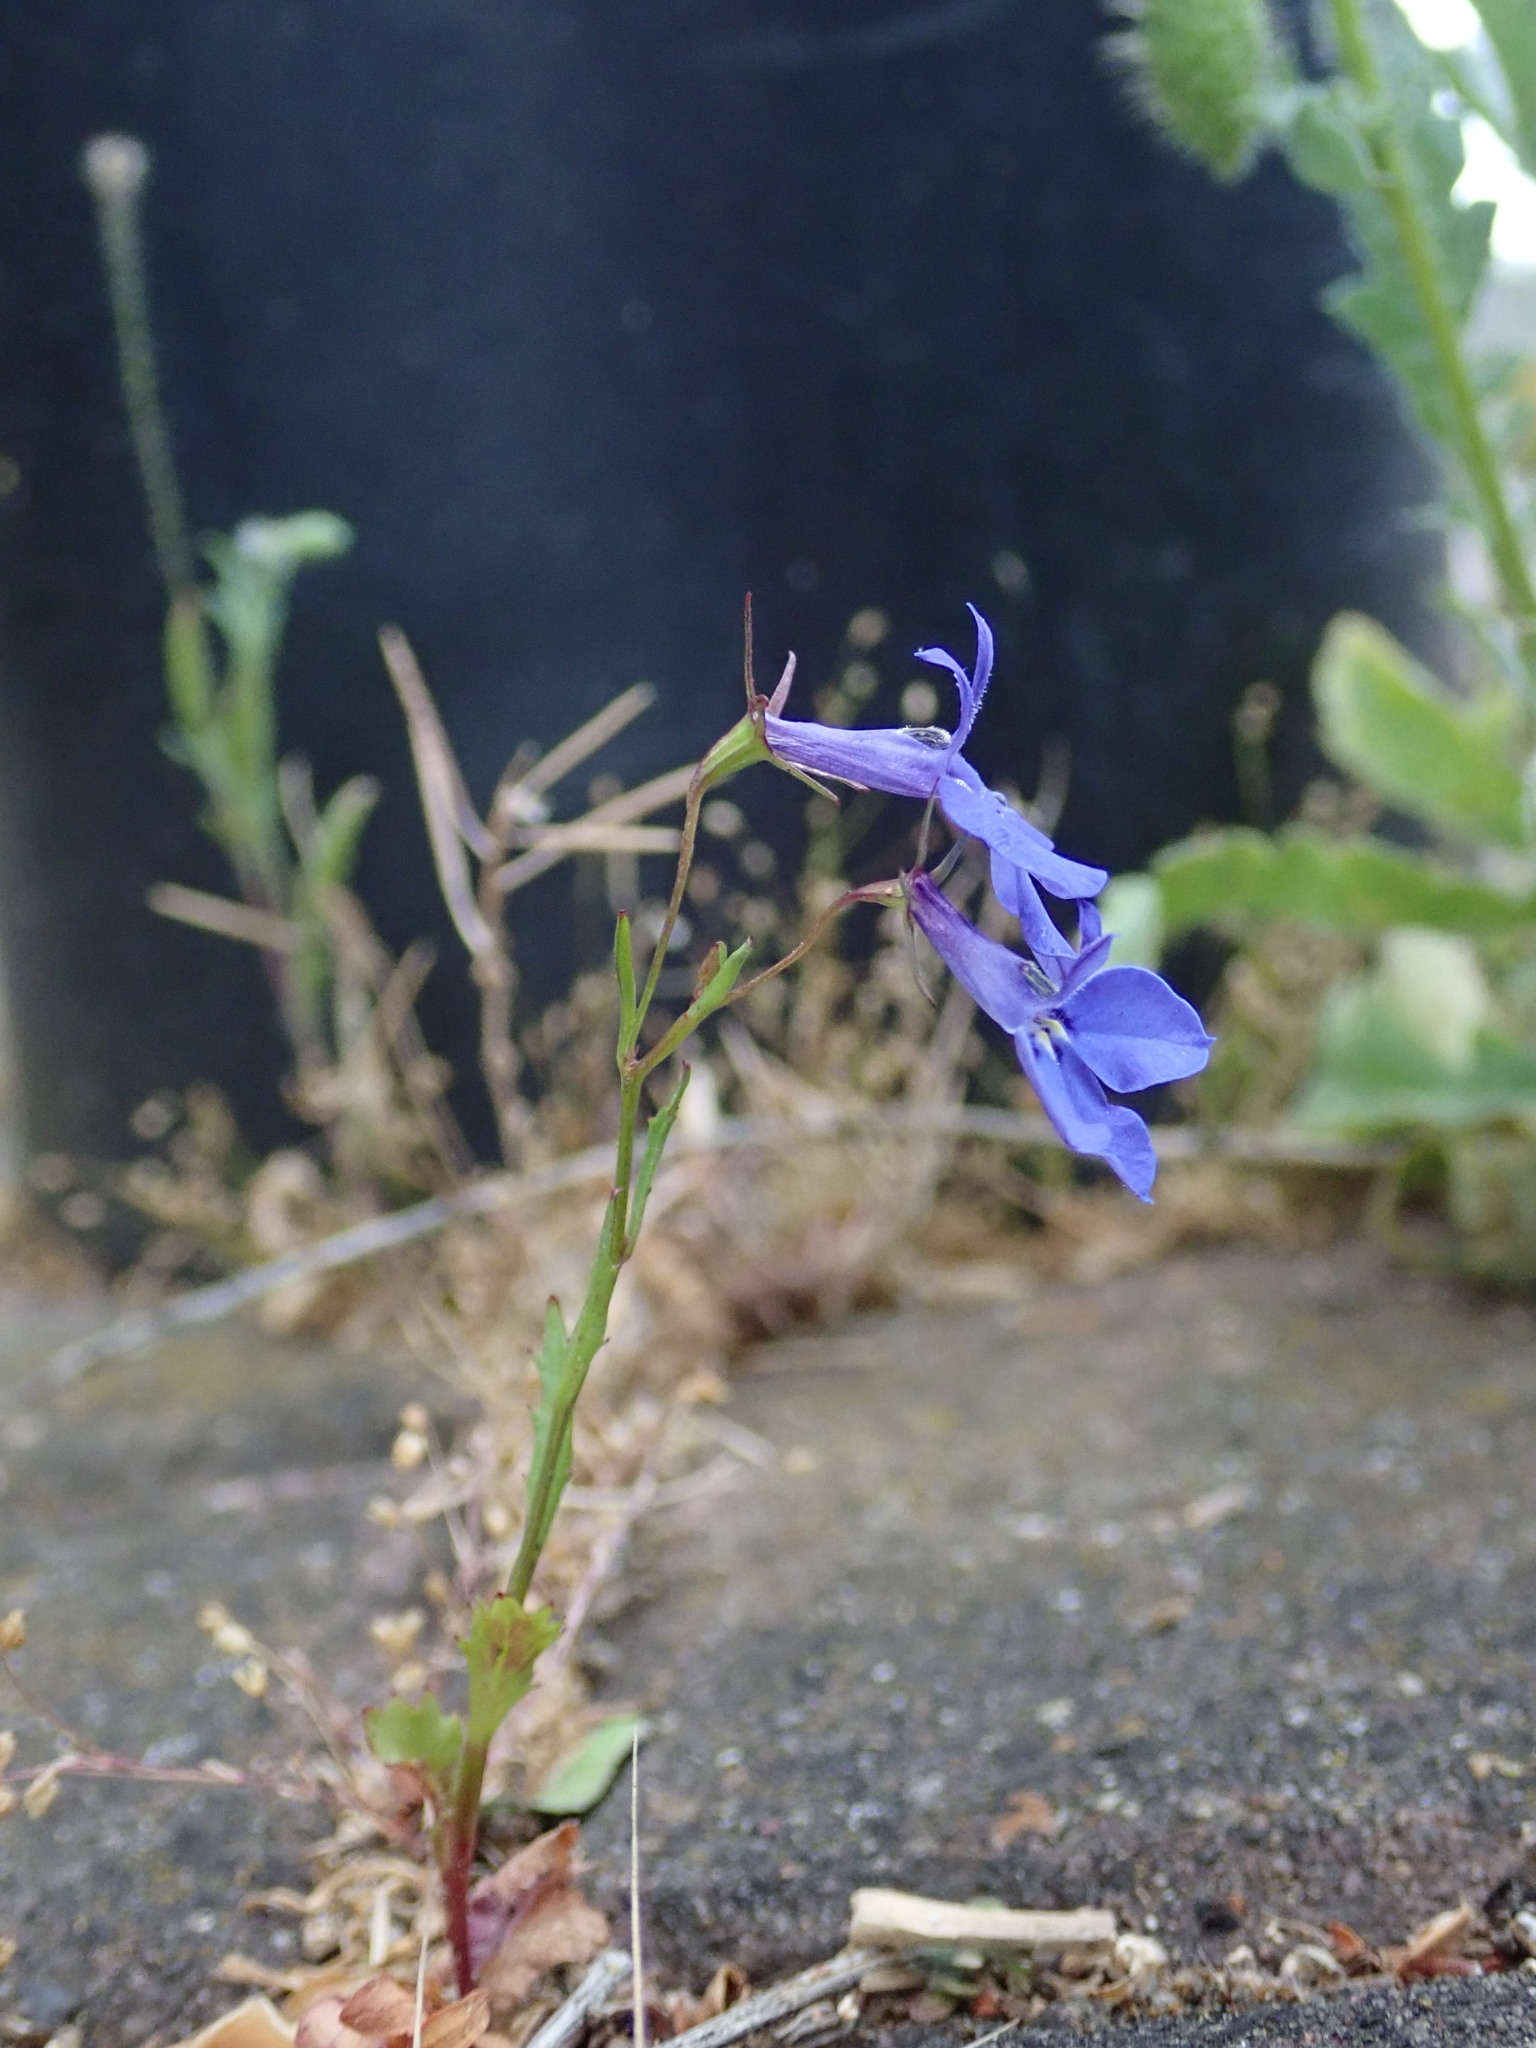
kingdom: Plantae
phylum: Tracheophyta
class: Magnoliopsida
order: Asterales
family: Campanulaceae
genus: Lobelia
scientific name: Lobelia erinus
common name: Edging lobelia
